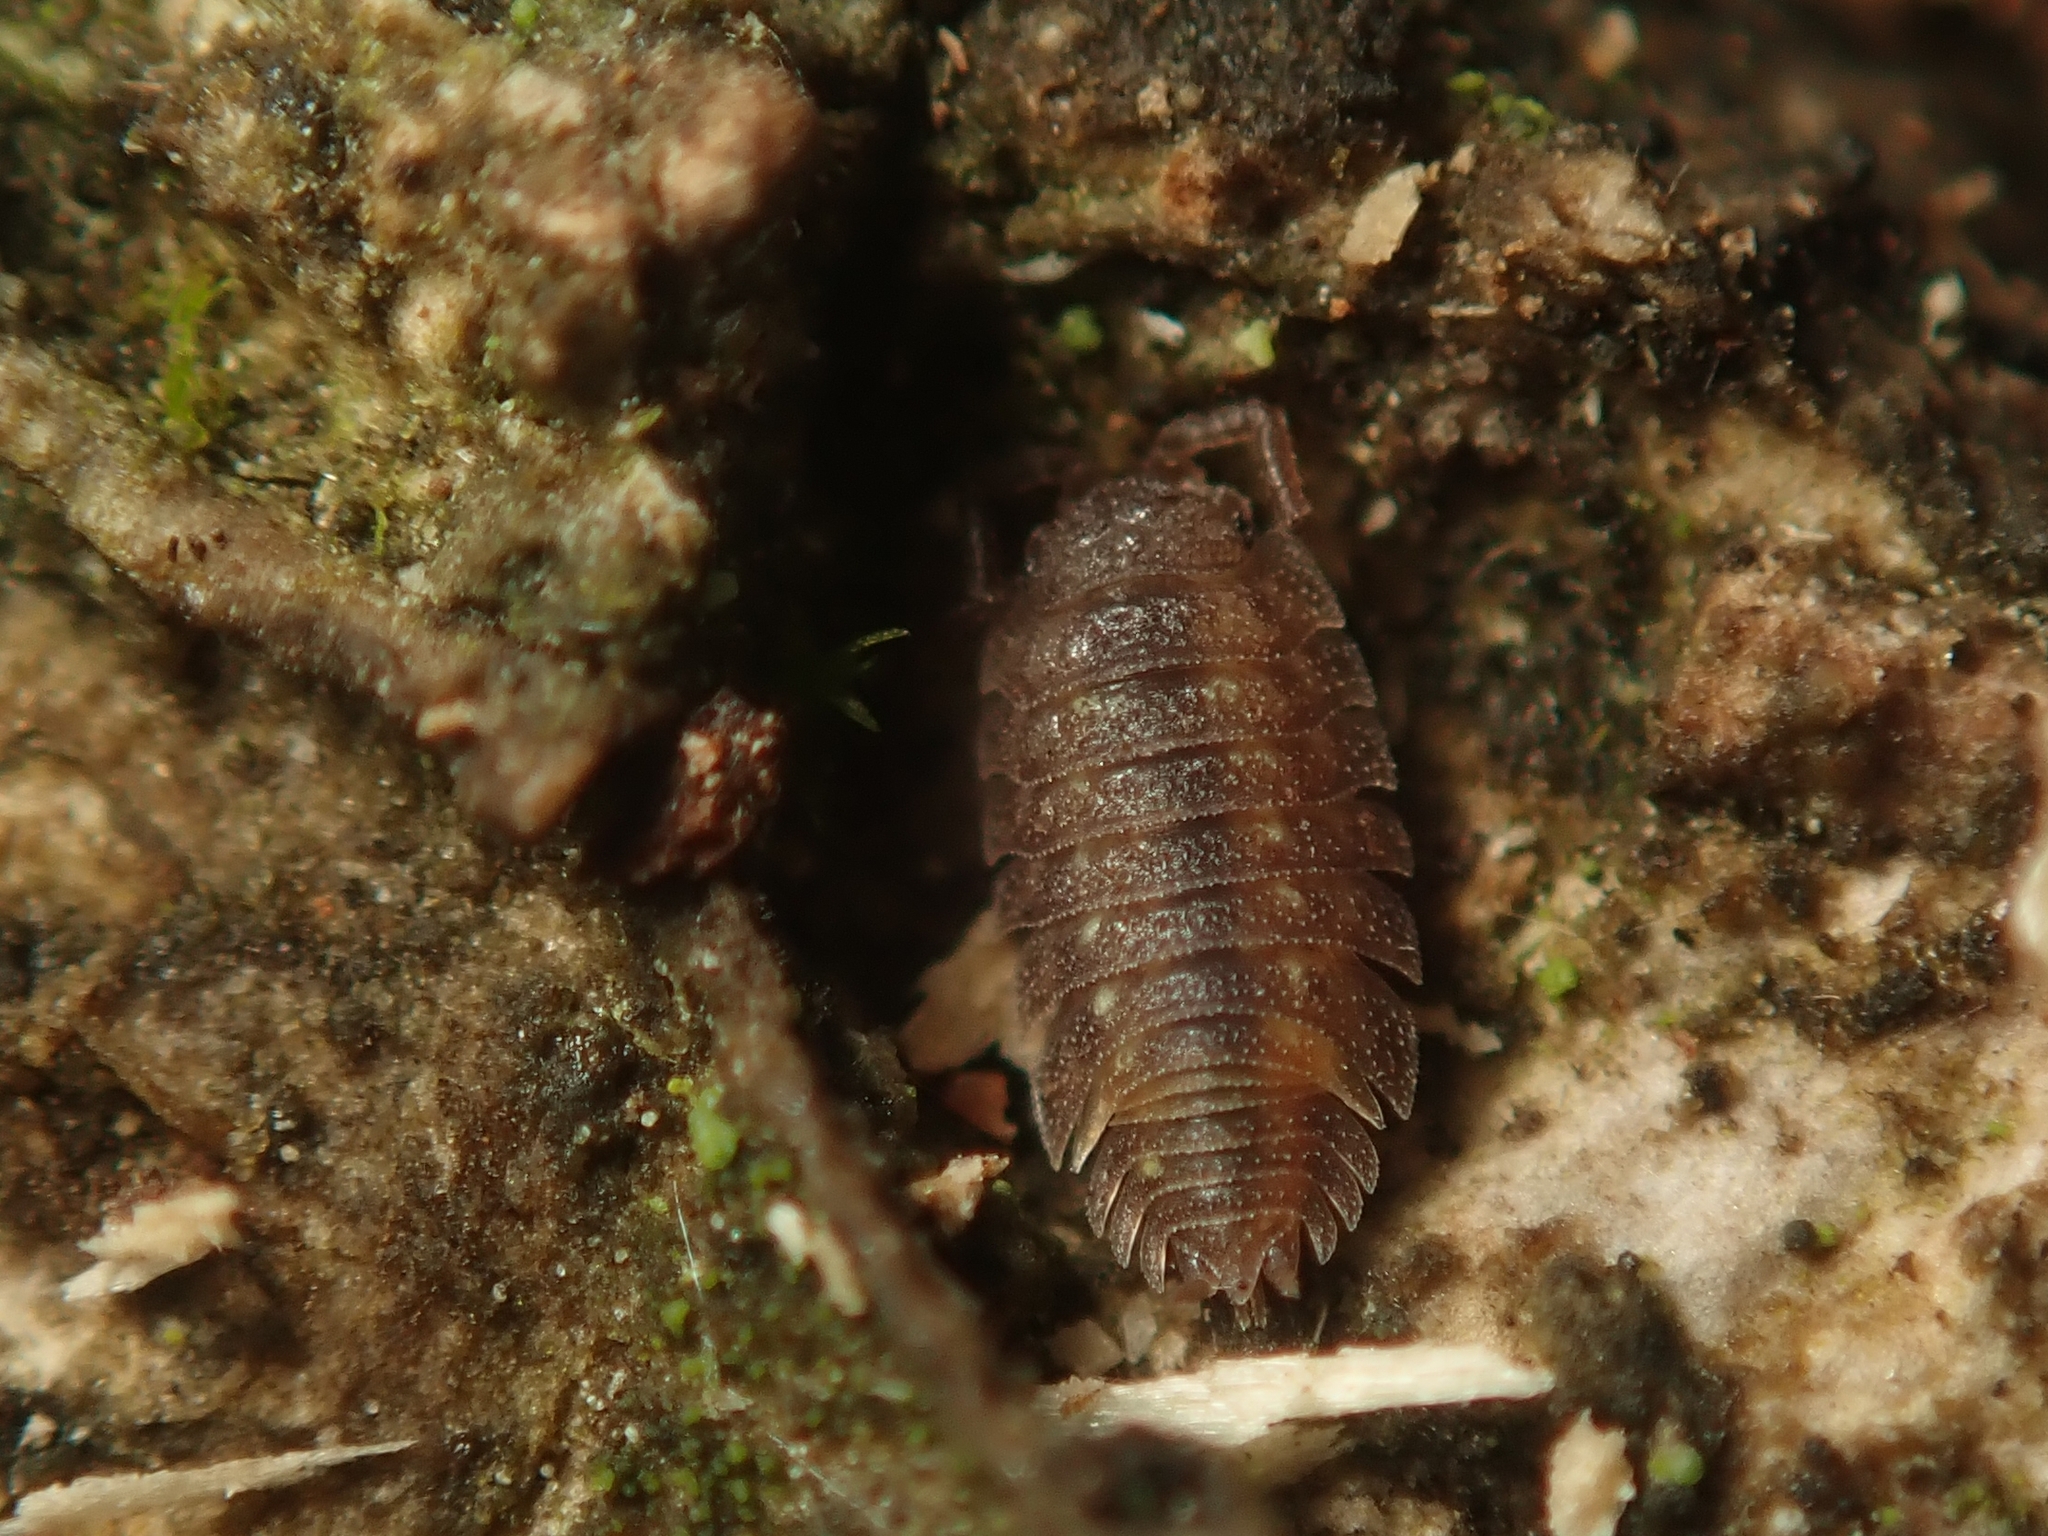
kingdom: Animalia
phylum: Arthropoda
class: Malacostraca
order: Isopoda
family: Oniscidae
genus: Oniscus
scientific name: Oniscus asellus
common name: Common shiny woodlouse
